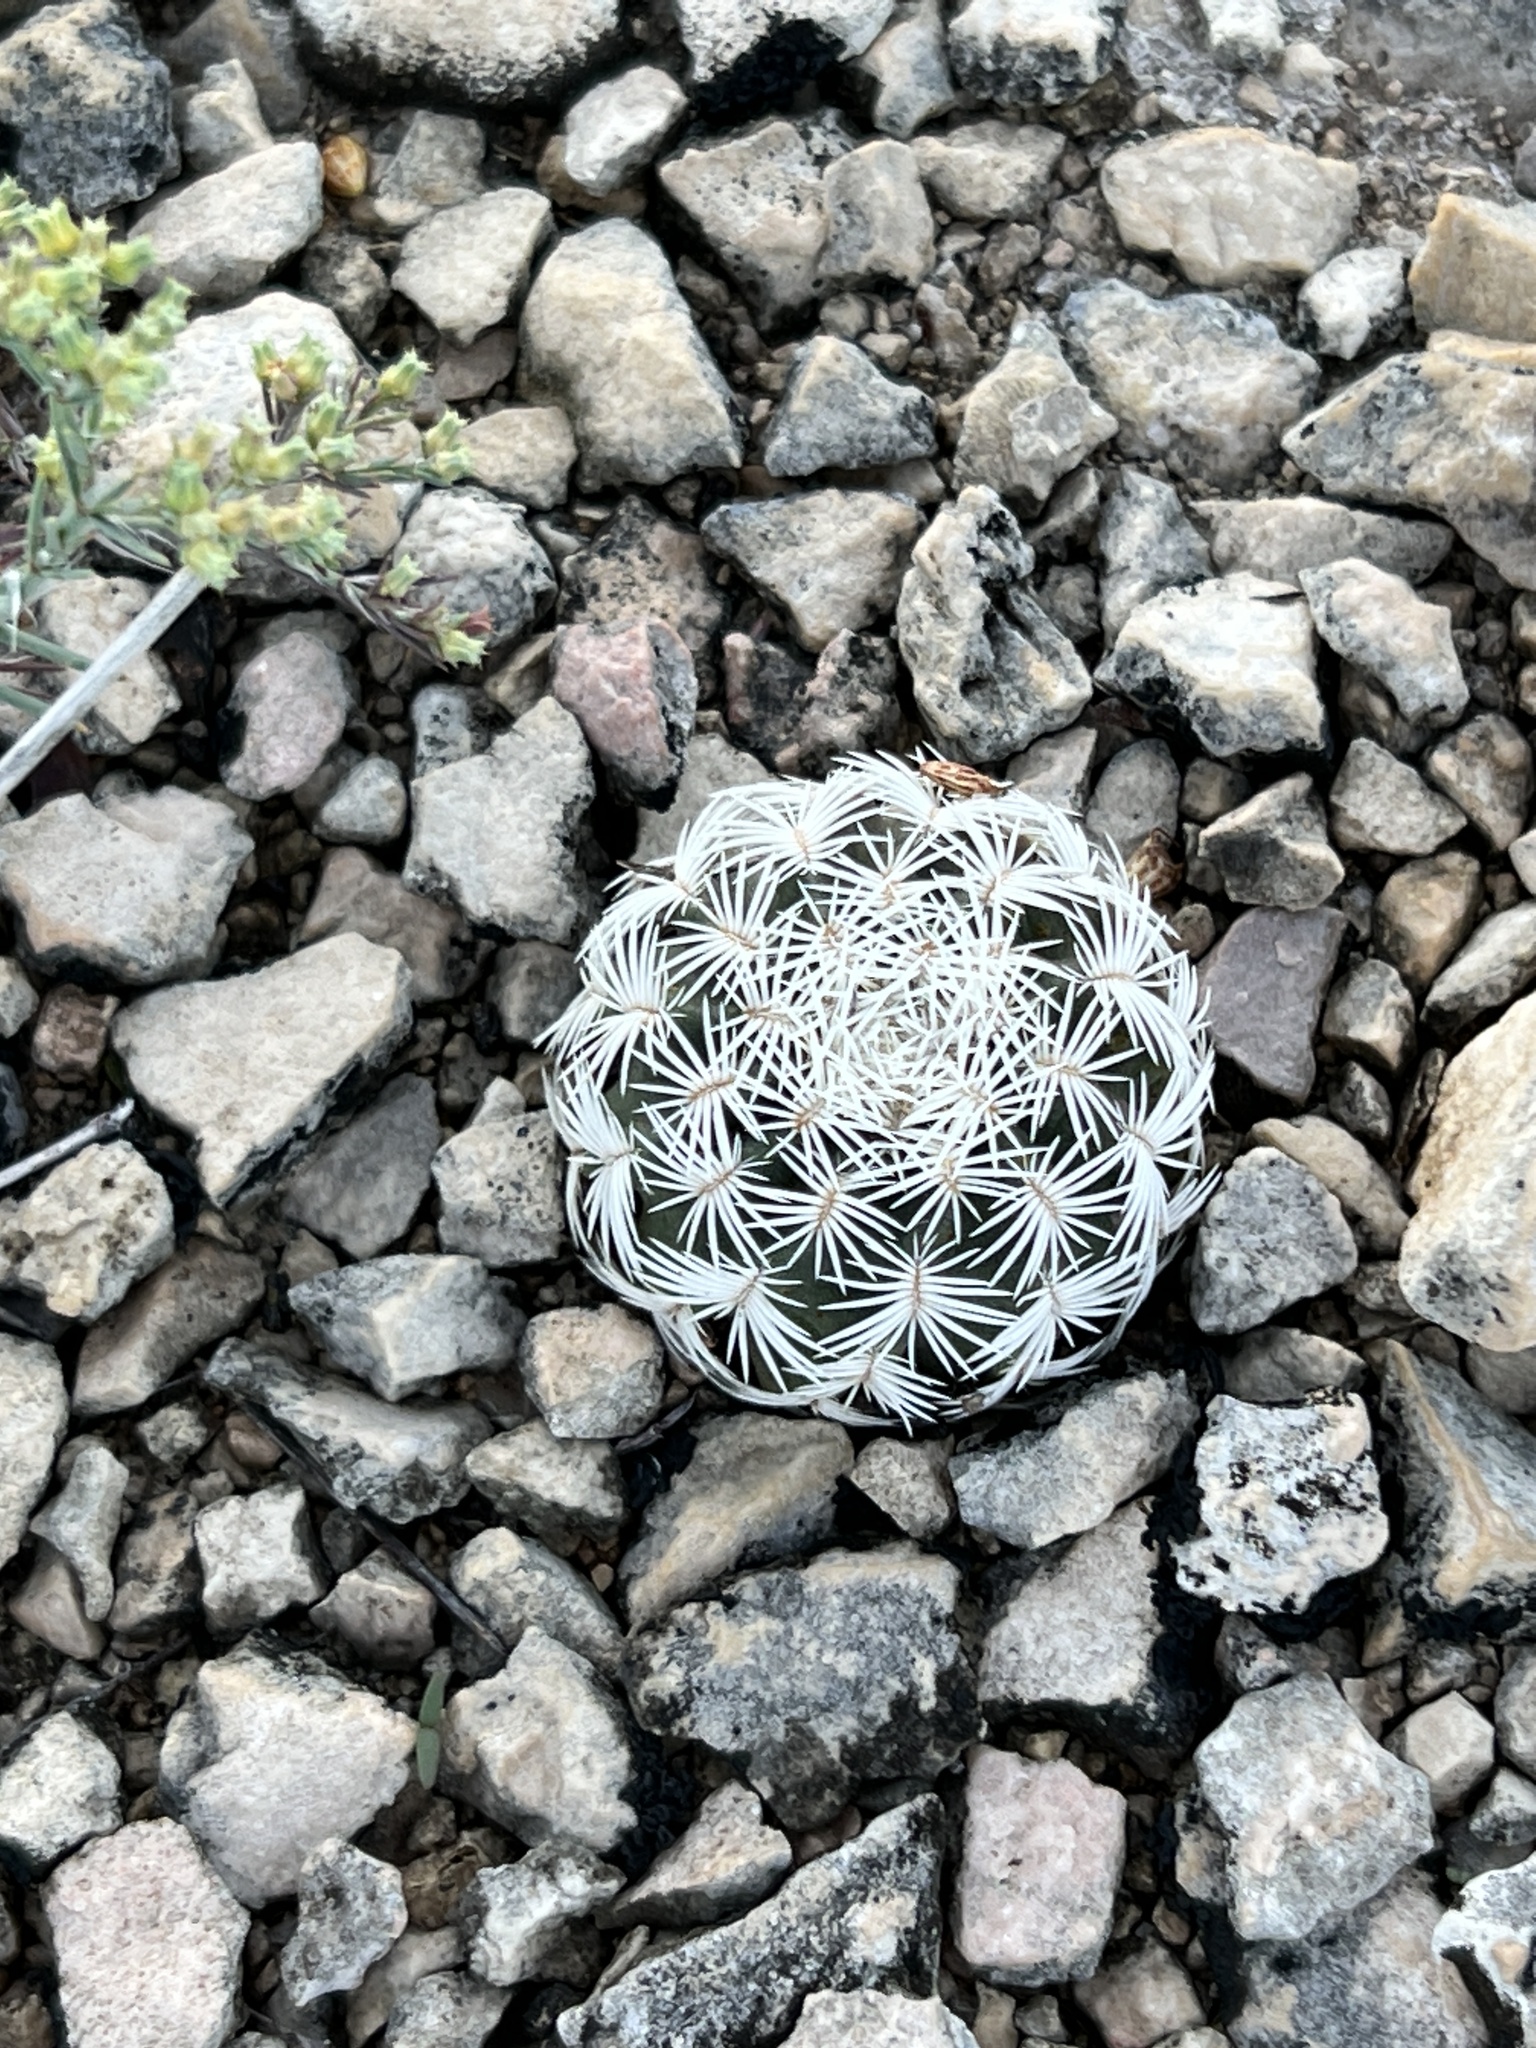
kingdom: Plantae
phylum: Tracheophyta
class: Magnoliopsida
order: Caryophyllales
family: Cactaceae
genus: Echinocereus
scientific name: Echinocereus reichenbachii
